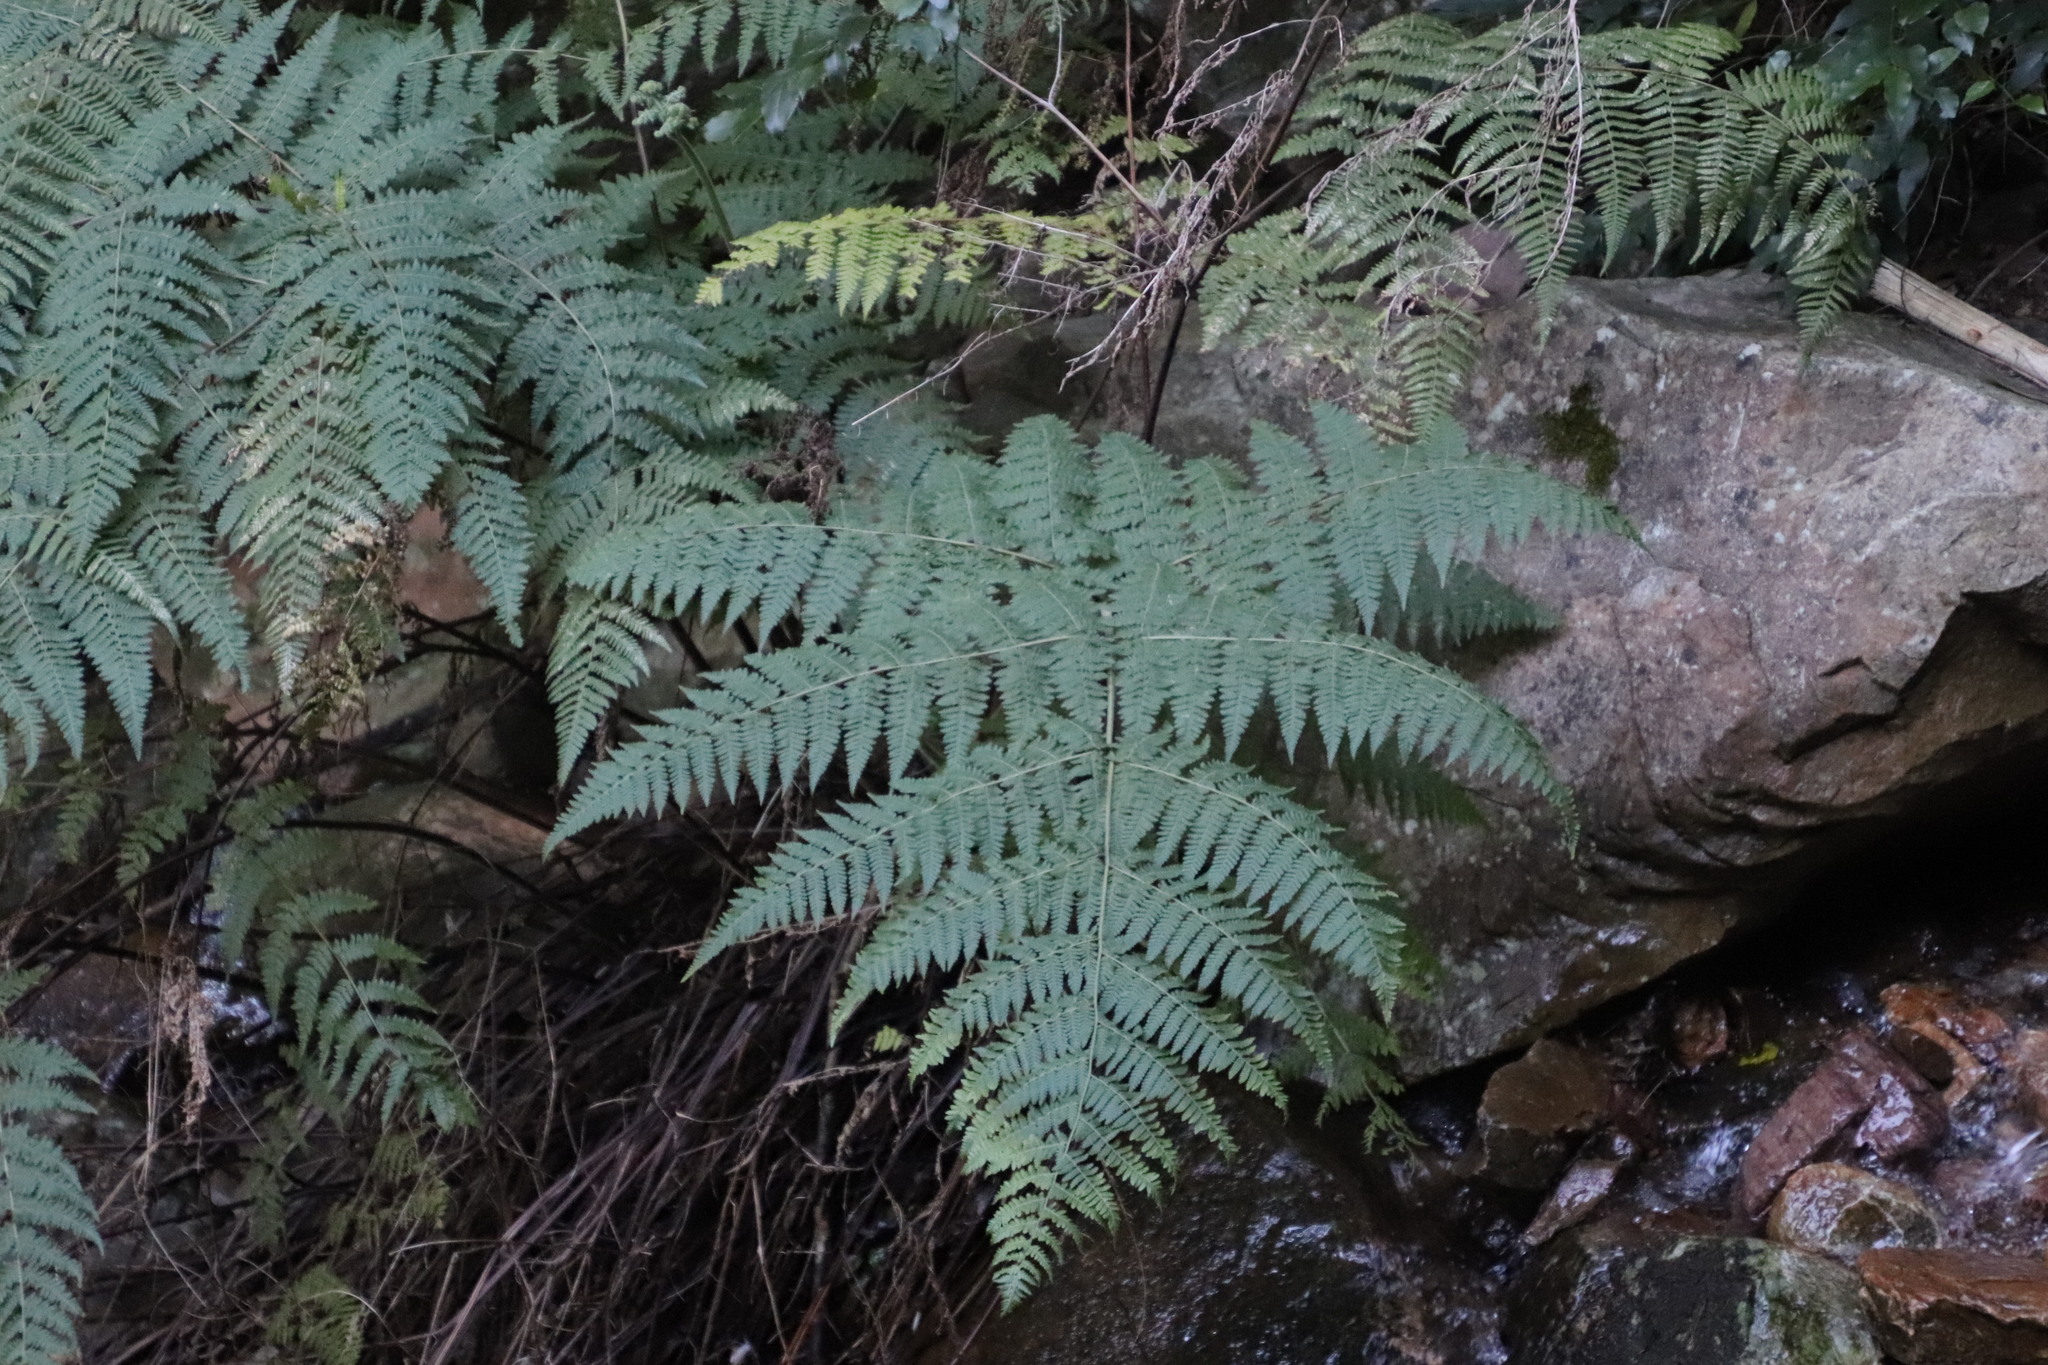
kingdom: Plantae
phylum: Tracheophyta
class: Polypodiopsida
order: Polypodiales
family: Dennstaedtiaceae
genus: Hypolepis
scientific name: Hypolepis sparsisora
